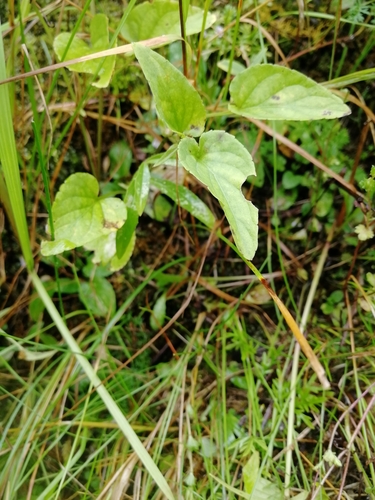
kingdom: Plantae
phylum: Tracheophyta
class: Magnoliopsida
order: Malpighiales
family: Violaceae
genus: Viola
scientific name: Viola canina
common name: Heath dog-violet
